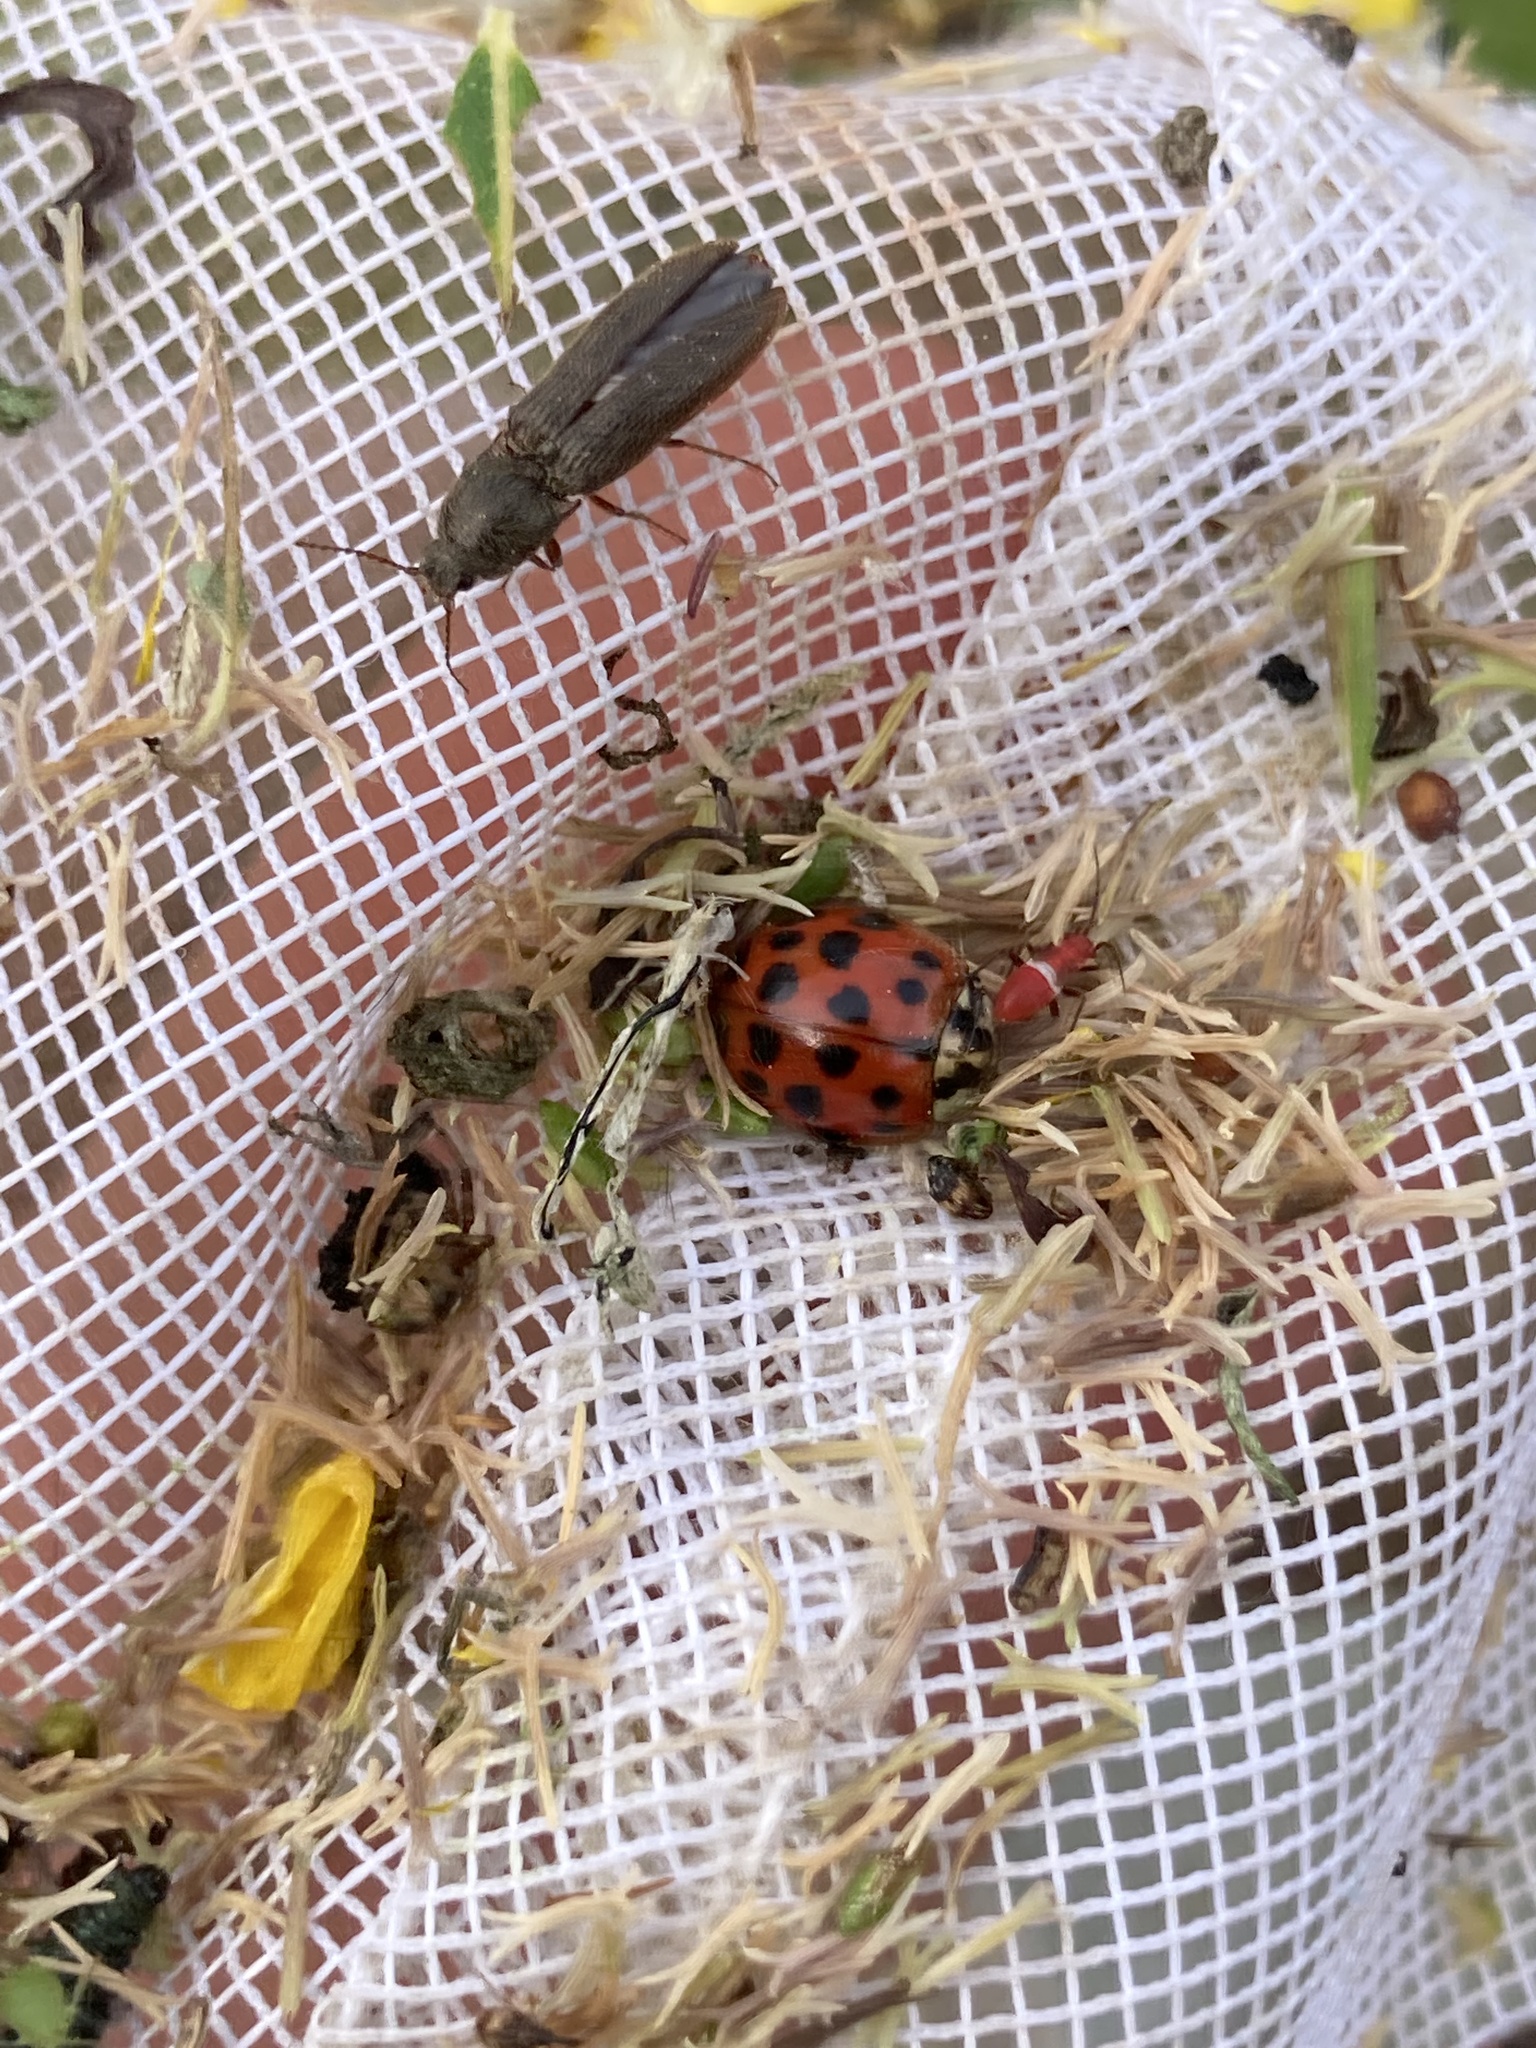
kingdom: Animalia
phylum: Arthropoda
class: Insecta
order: Coleoptera
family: Coccinellidae
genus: Harmonia
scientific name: Harmonia axyridis
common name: Harlequin ladybird
